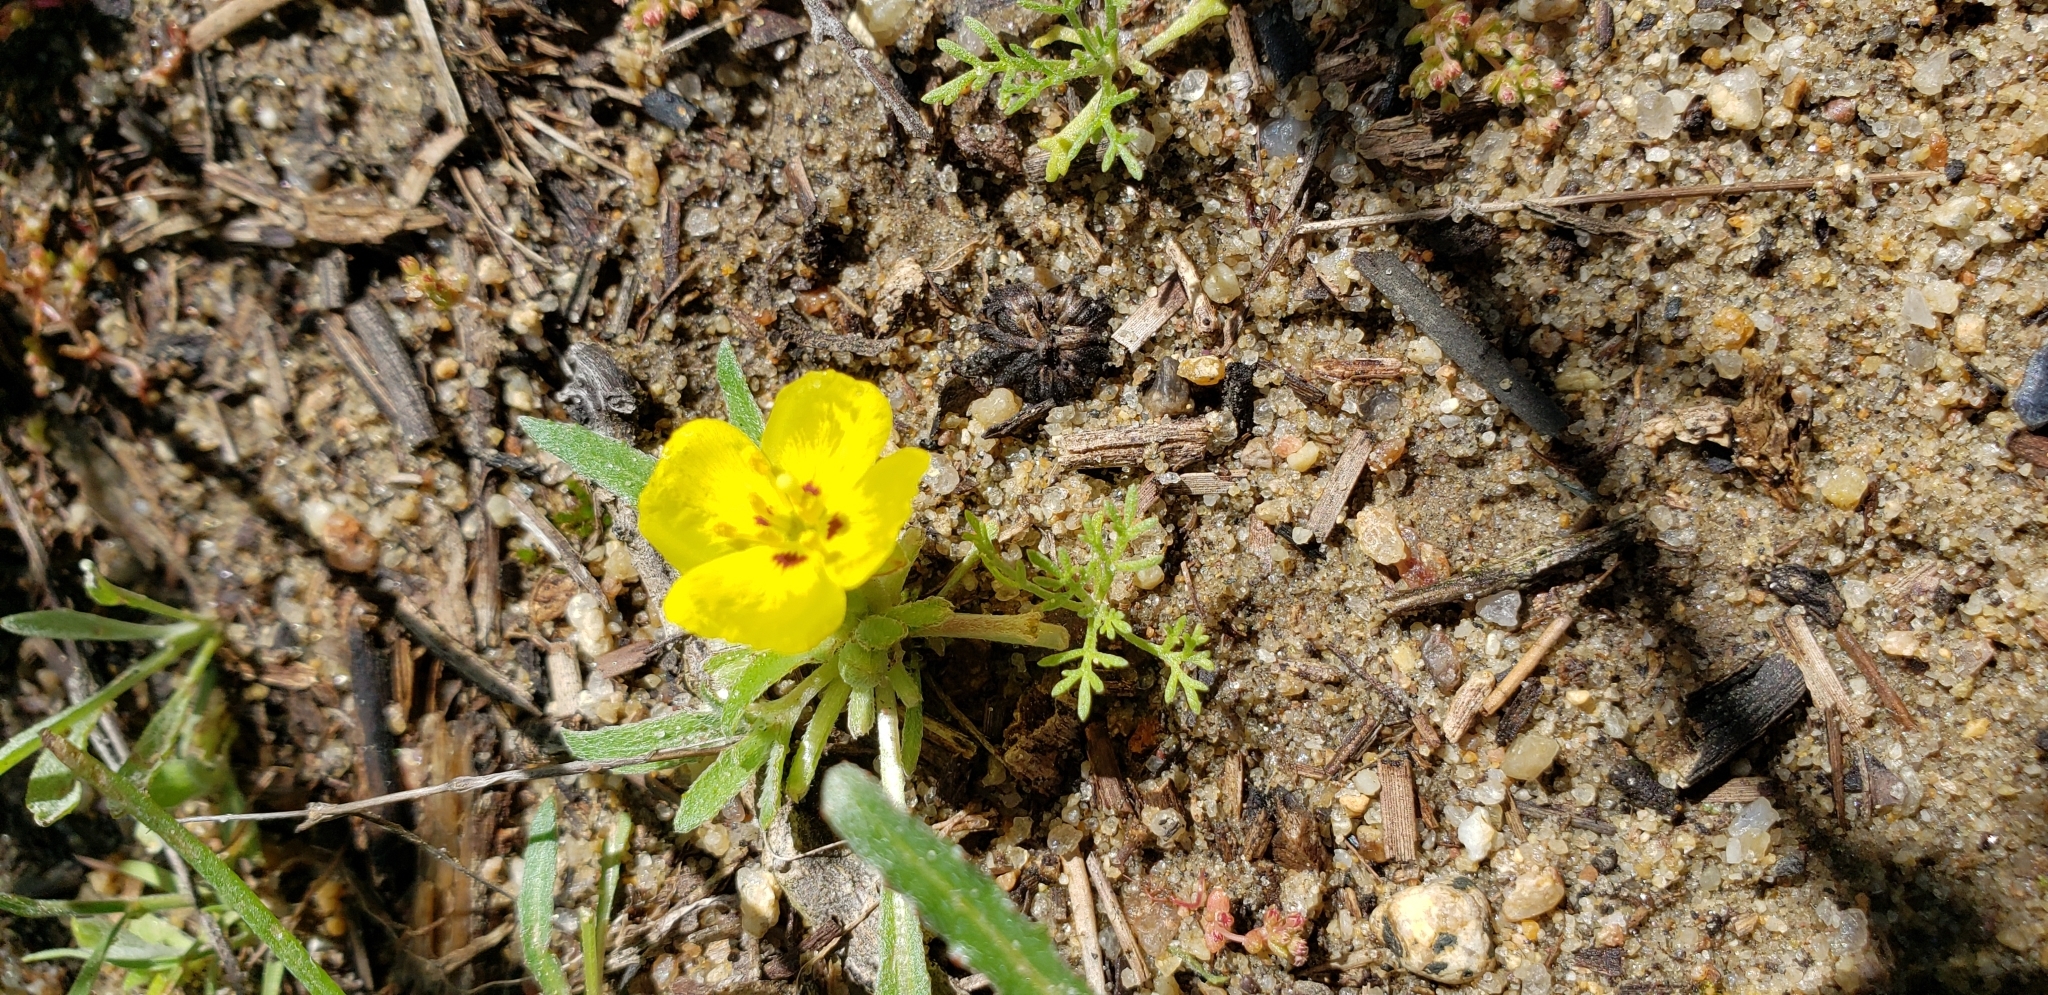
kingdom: Plantae
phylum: Tracheophyta
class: Magnoliopsida
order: Myrtales
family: Onagraceae
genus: Camissoniopsis
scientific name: Camissoniopsis bistorta
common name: Southern suncup
